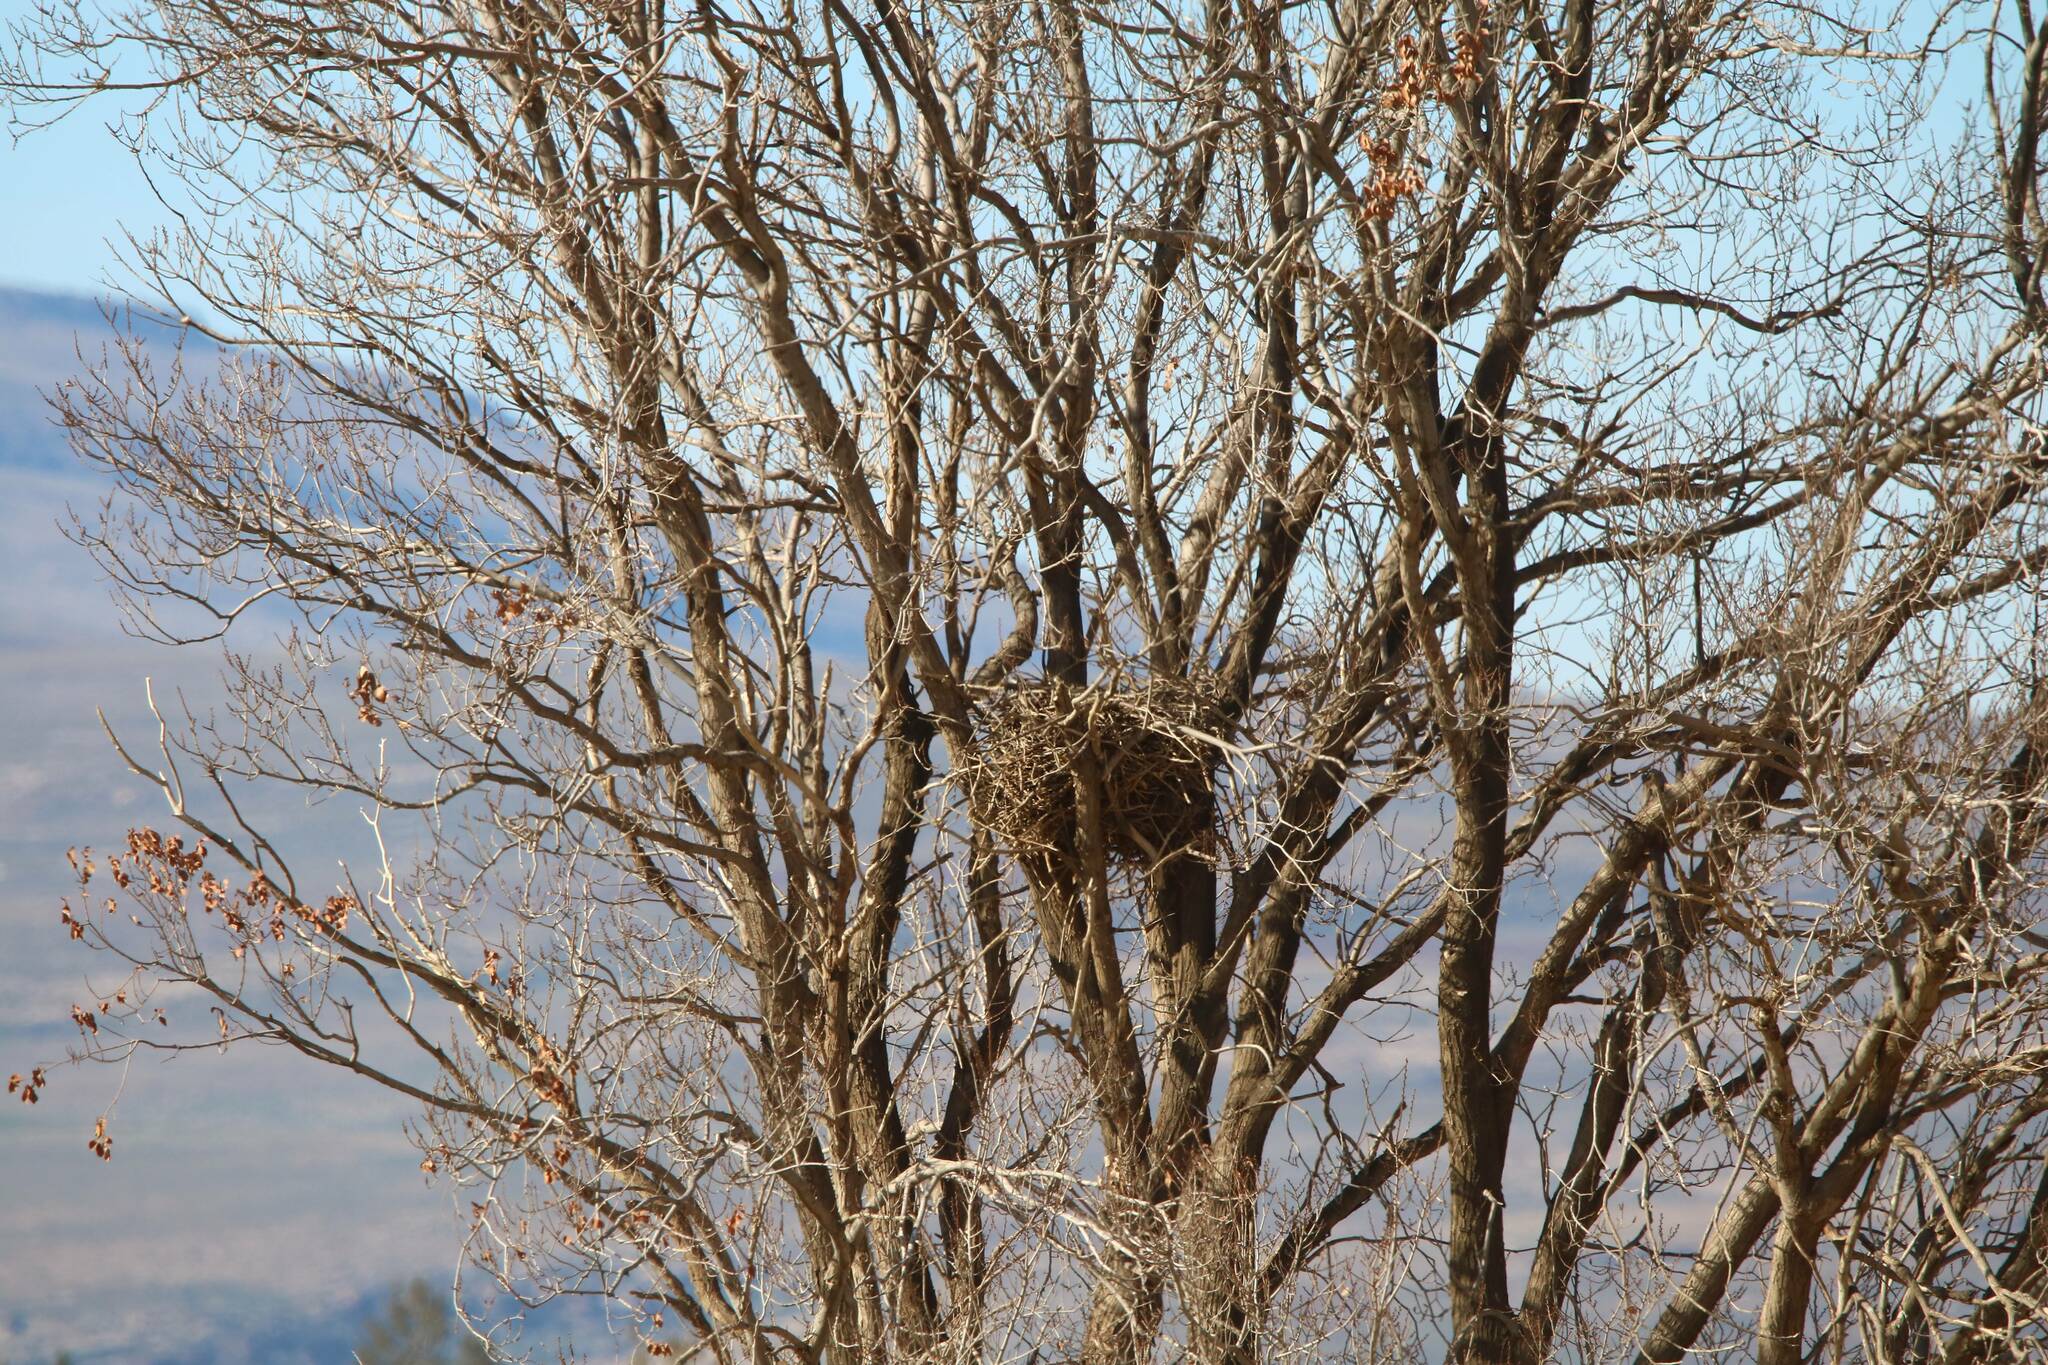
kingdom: Animalia
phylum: Chordata
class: Aves
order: Accipitriformes
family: Accipitridae
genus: Buteo
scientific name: Buteo rufinus
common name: Long-legged buzzard
